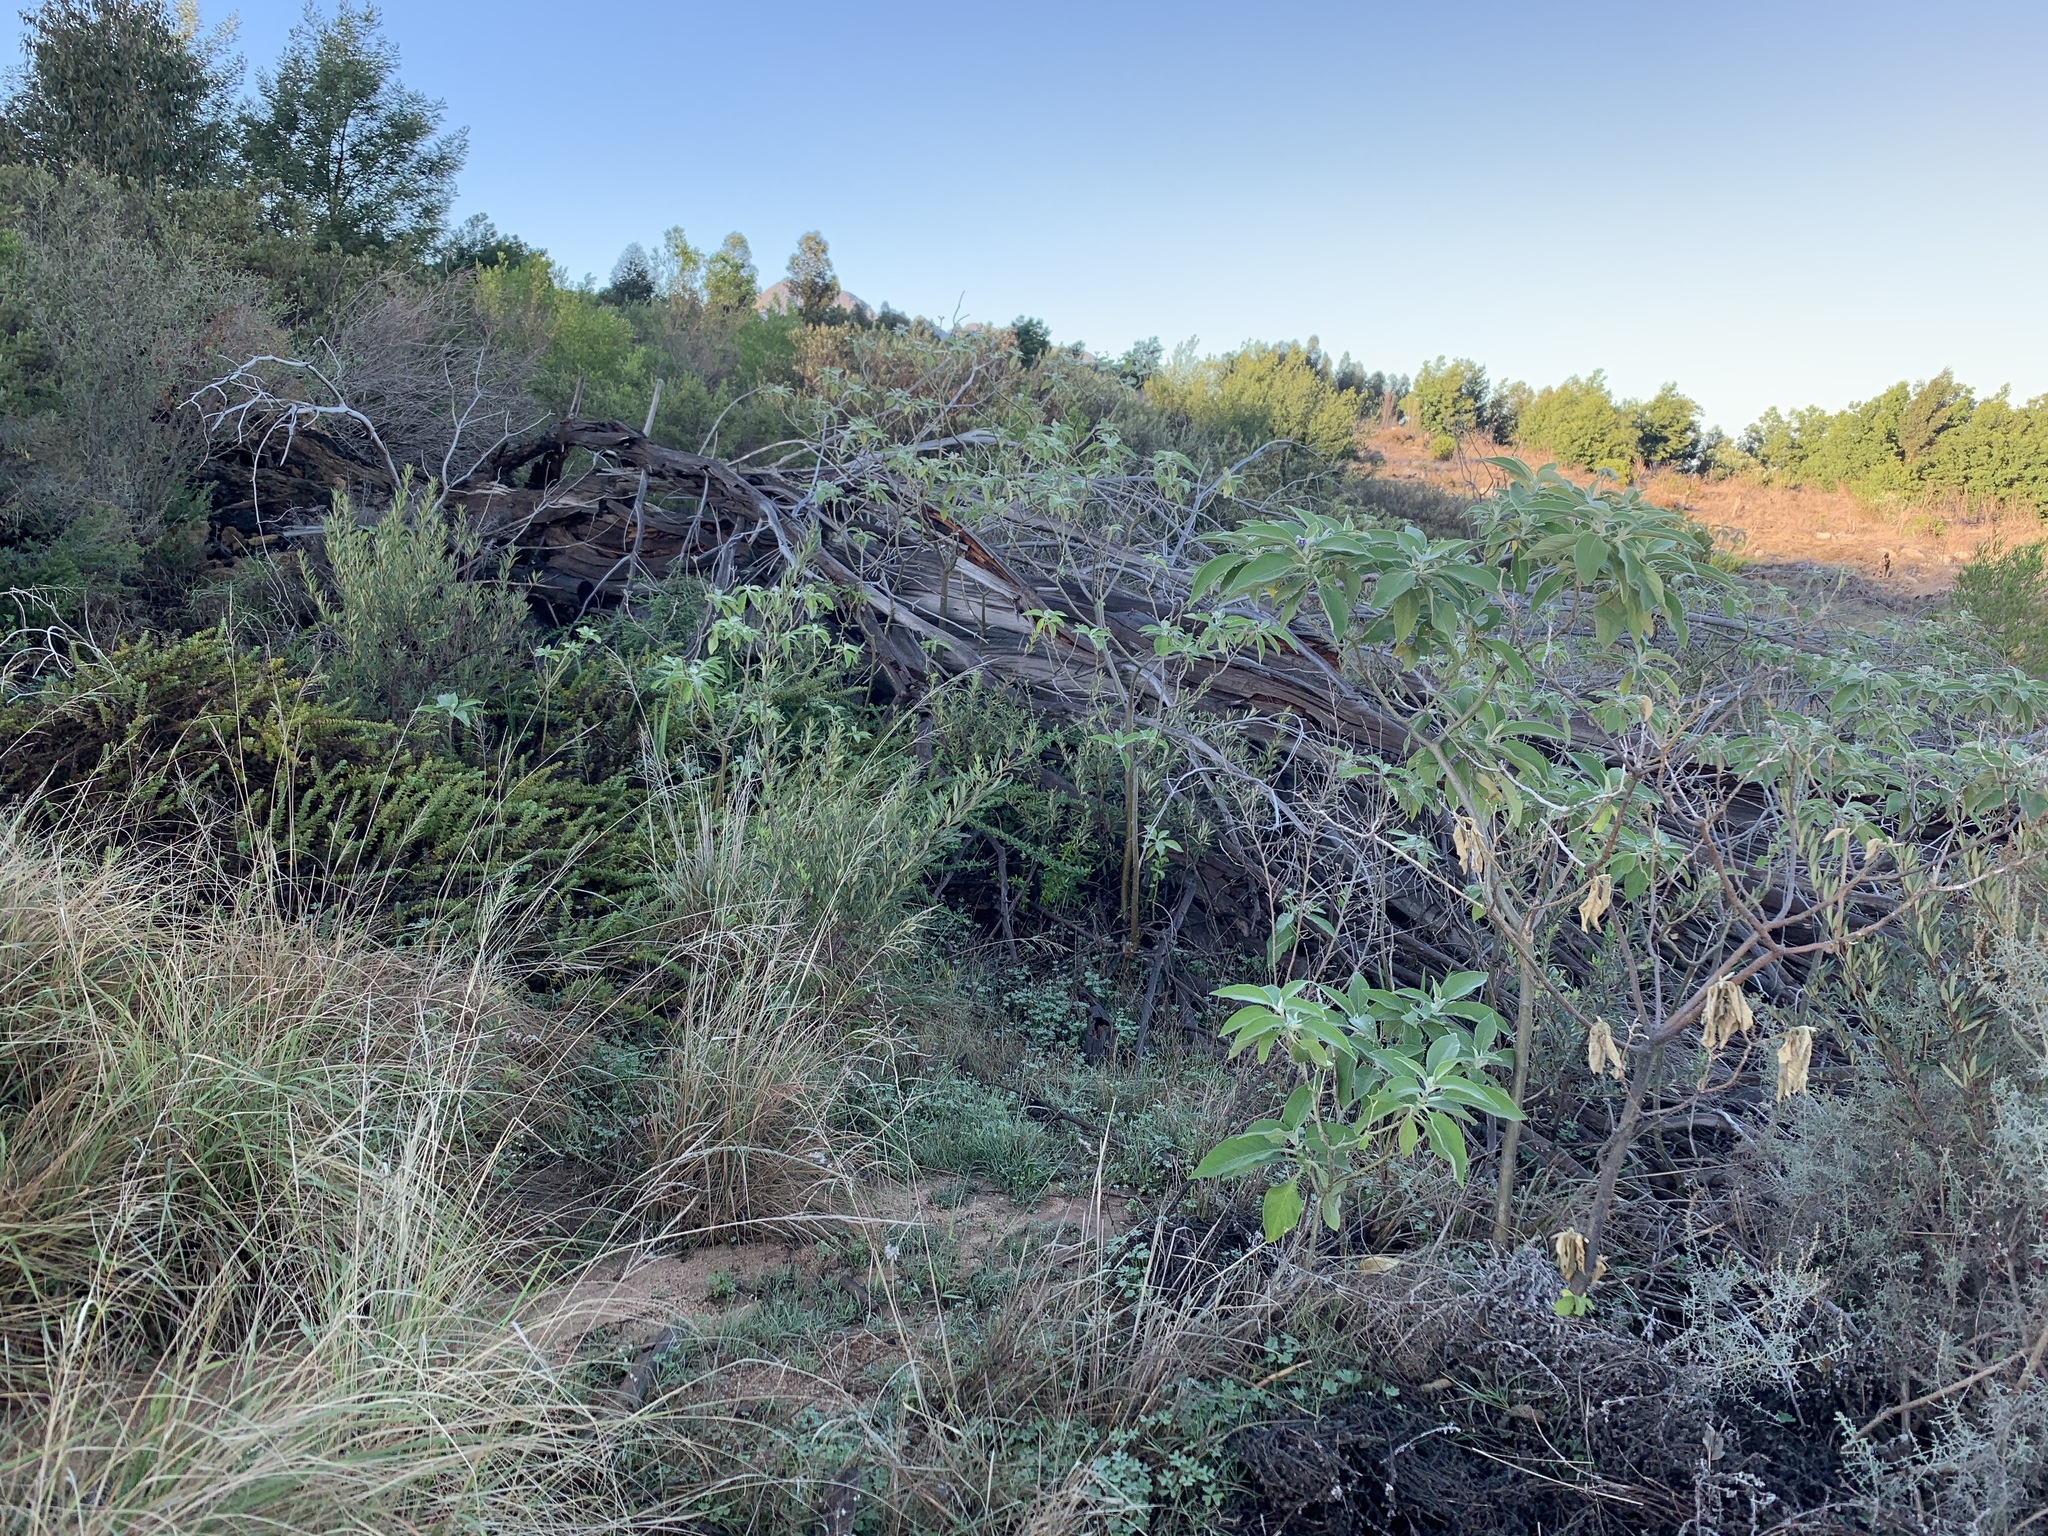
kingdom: Plantae
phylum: Tracheophyta
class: Magnoliopsida
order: Solanales
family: Solanaceae
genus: Solanum
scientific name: Solanum mauritianum
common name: Earleaf nightshade
